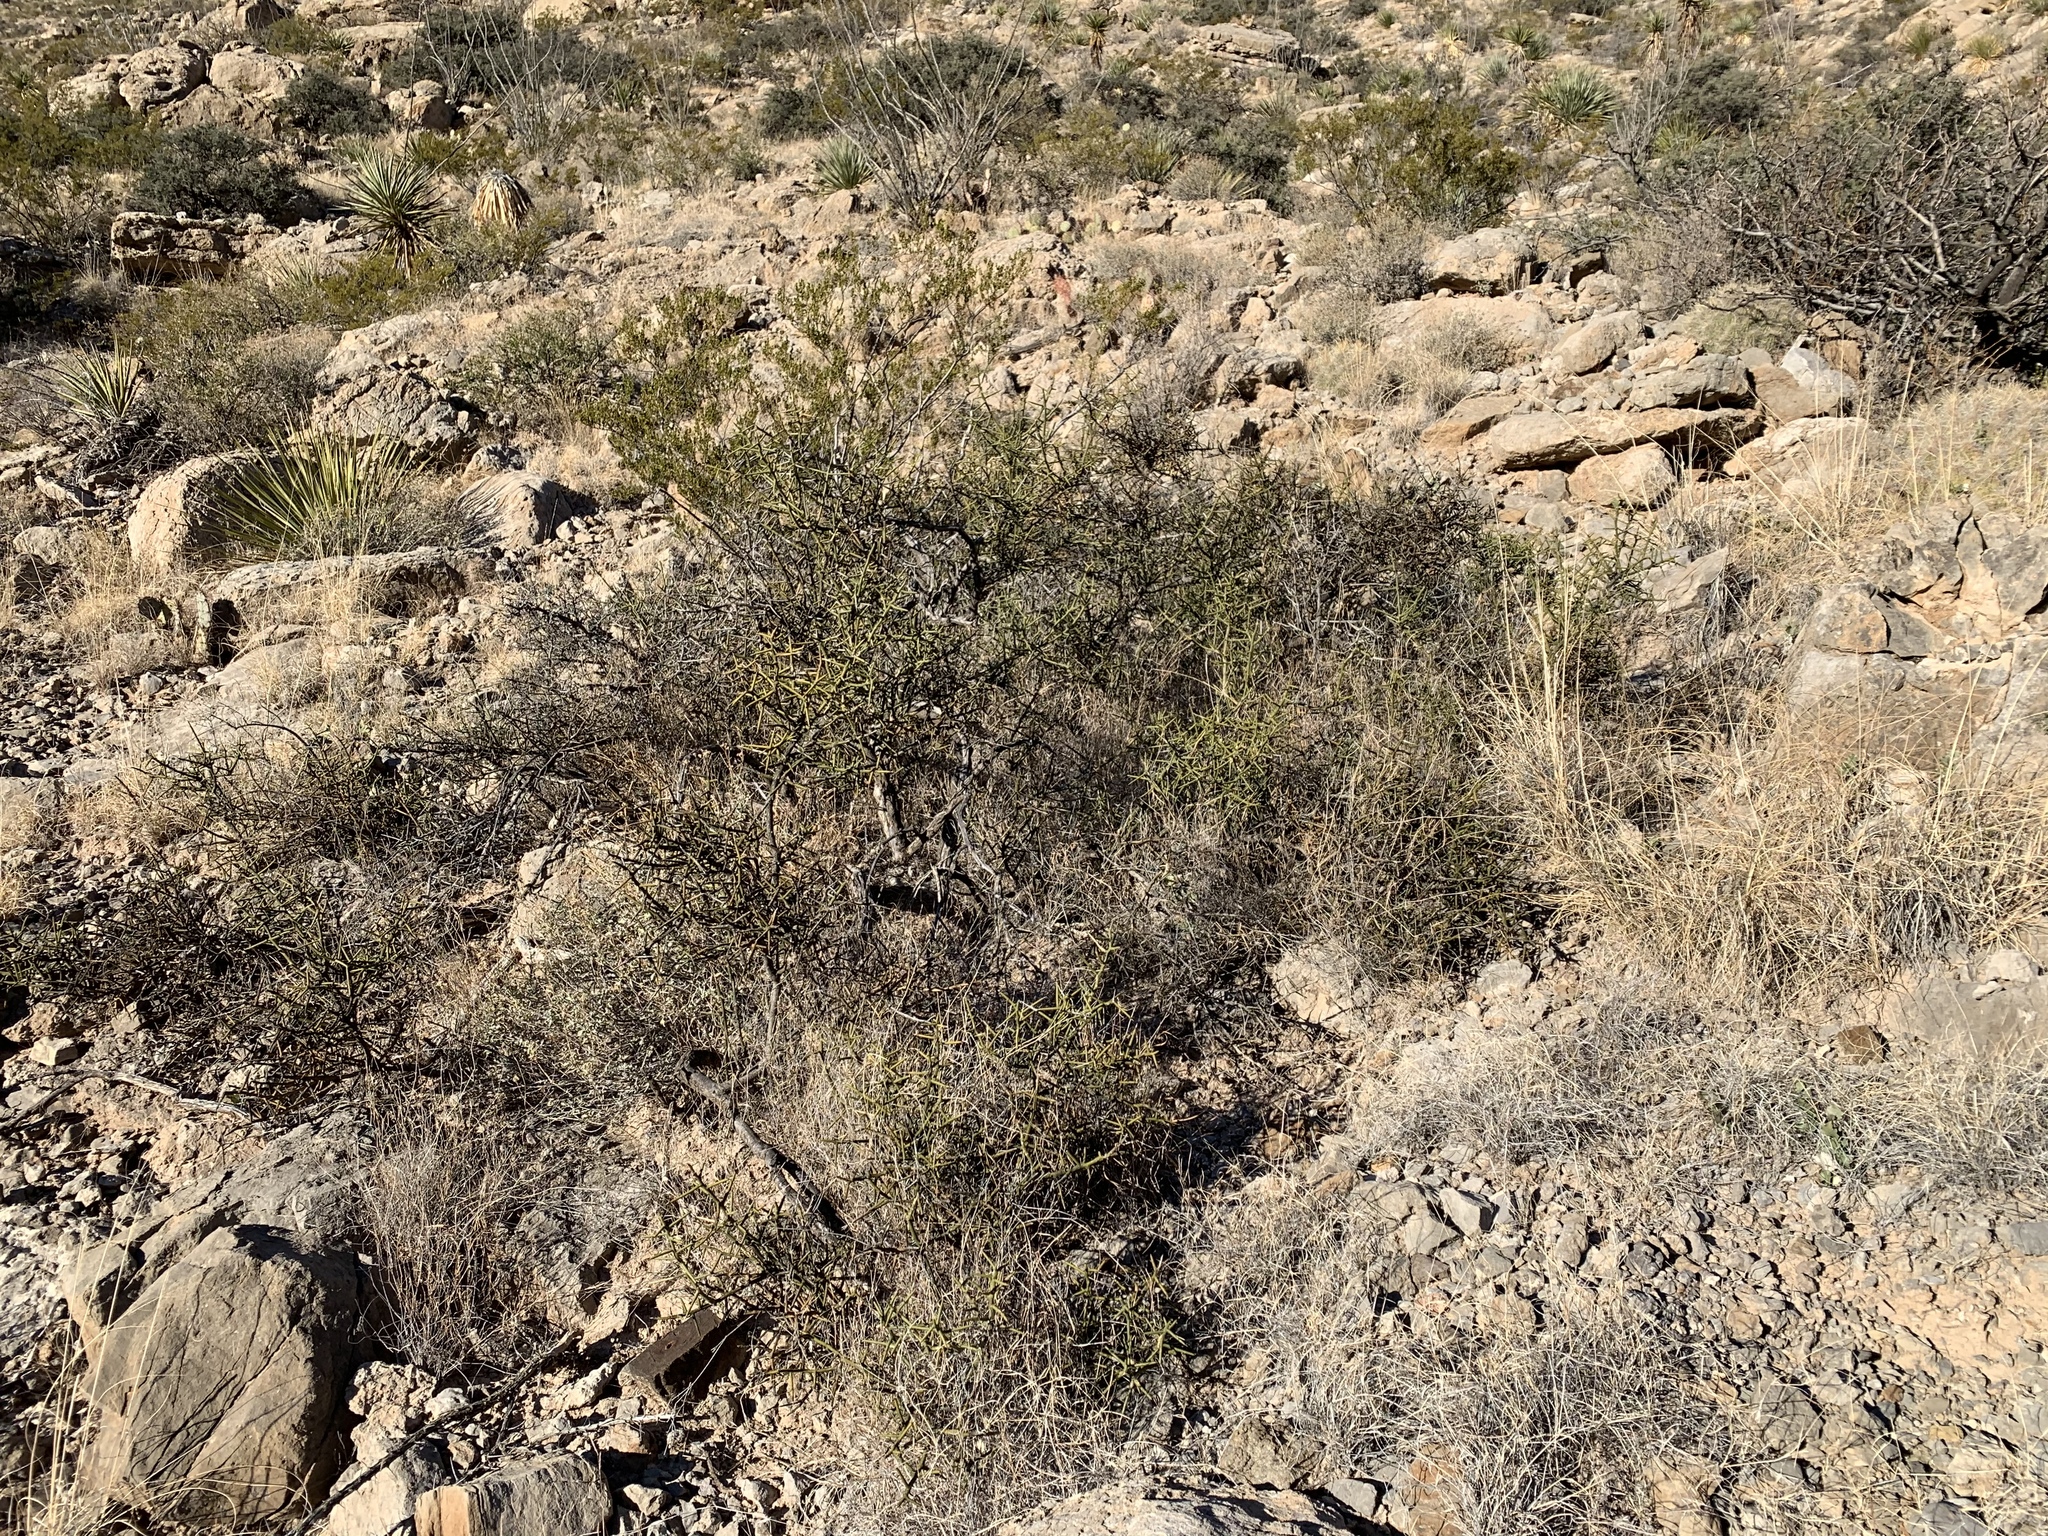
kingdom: Plantae
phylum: Tracheophyta
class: Magnoliopsida
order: Brassicales
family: Koeberliniaceae
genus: Koeberlinia
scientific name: Koeberlinia spinosa
